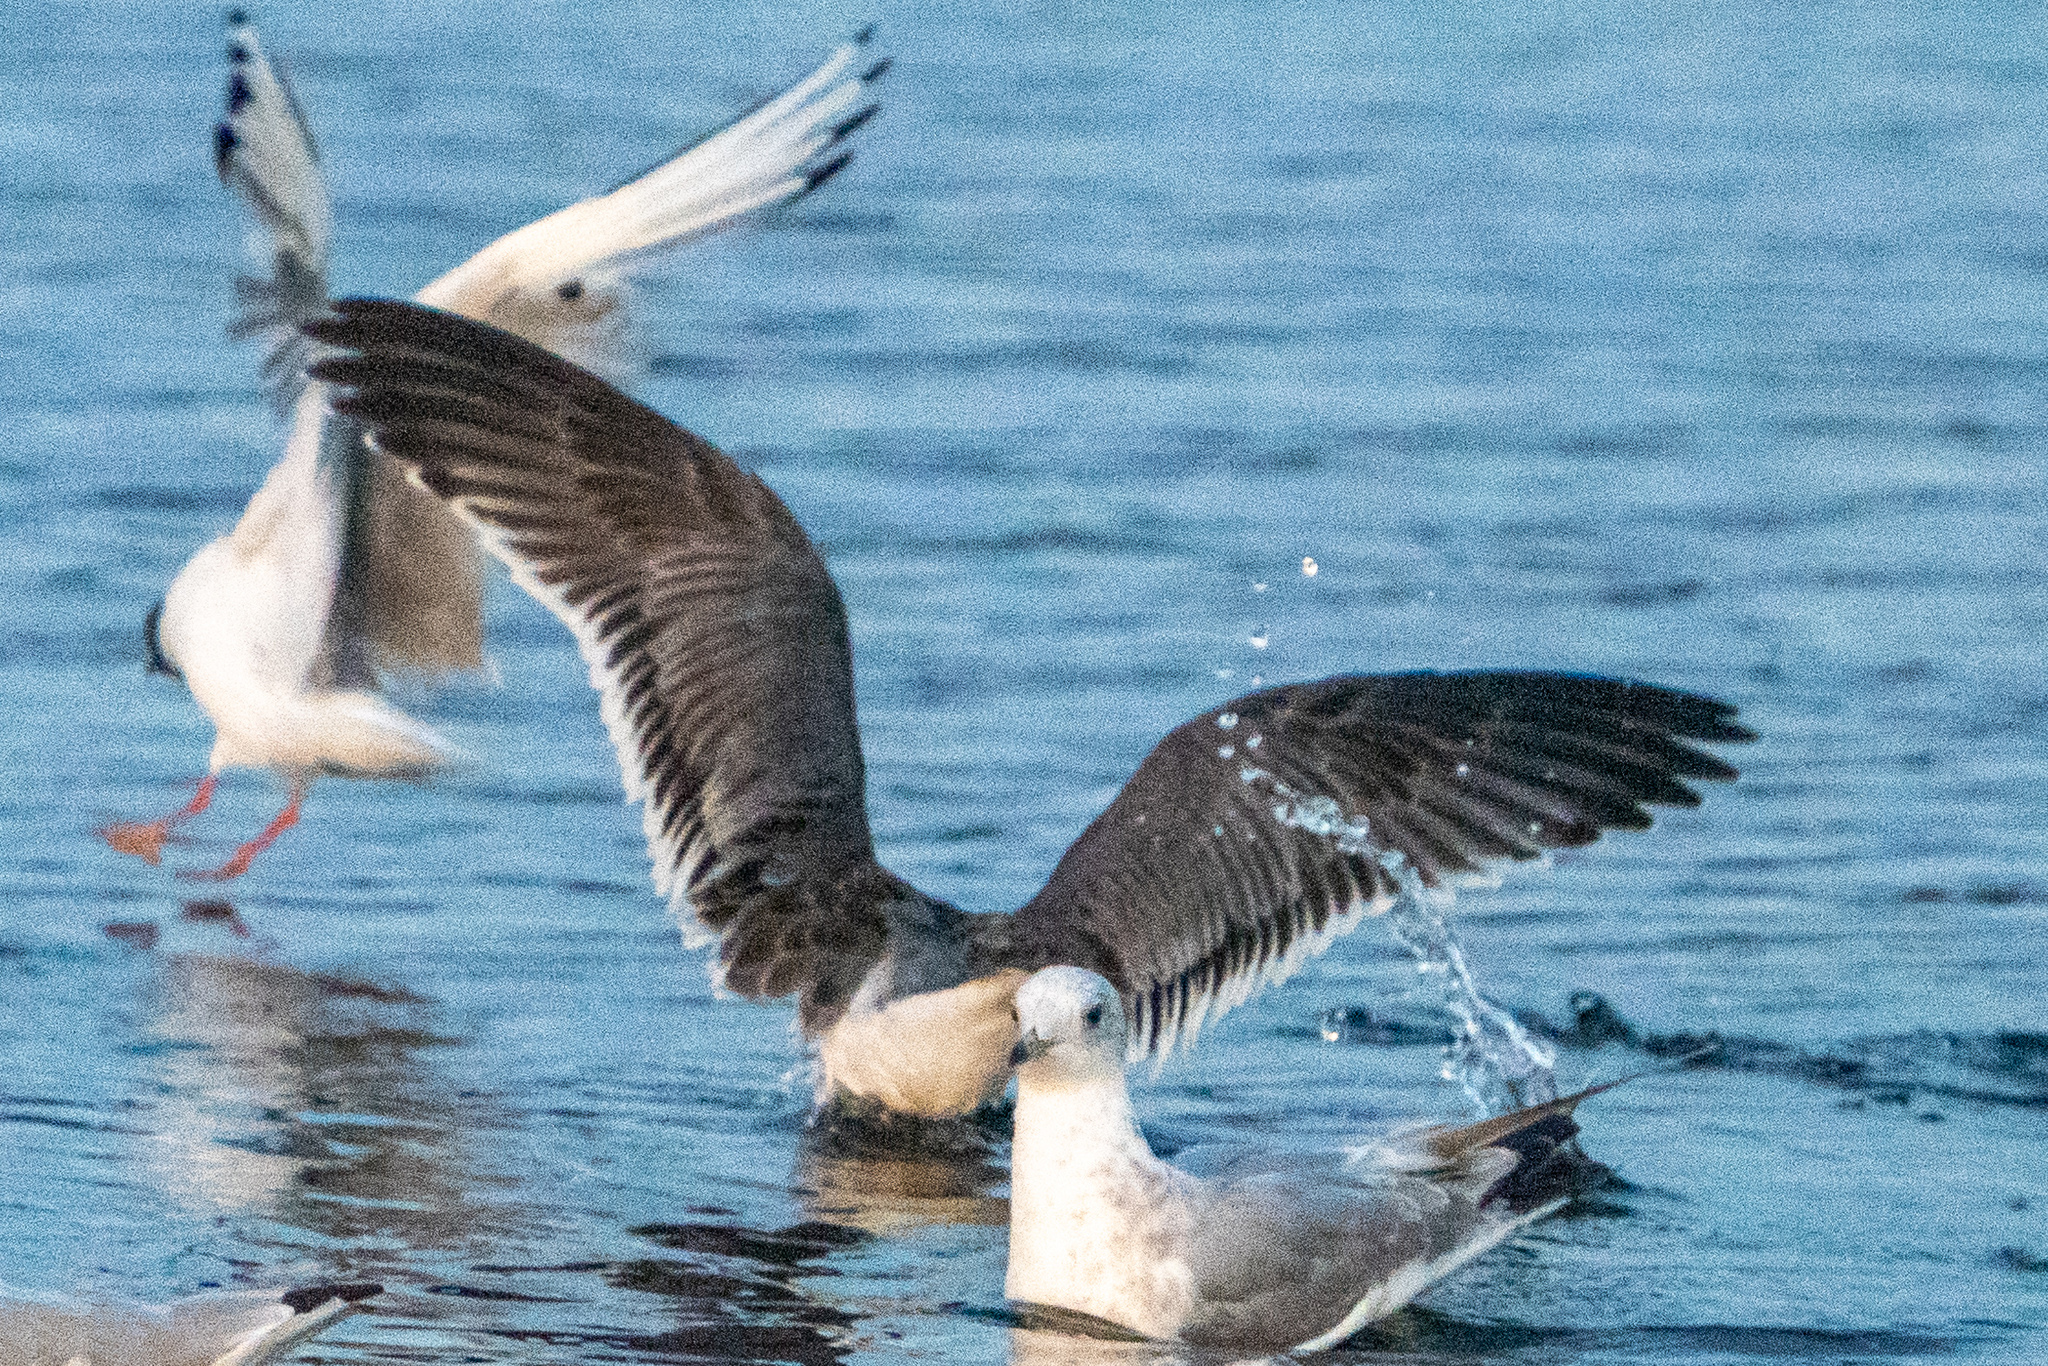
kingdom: Animalia
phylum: Chordata
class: Aves
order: Charadriiformes
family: Laridae
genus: Leucophaeus
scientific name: Leucophaeus pipixcan
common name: Franklin's gull
